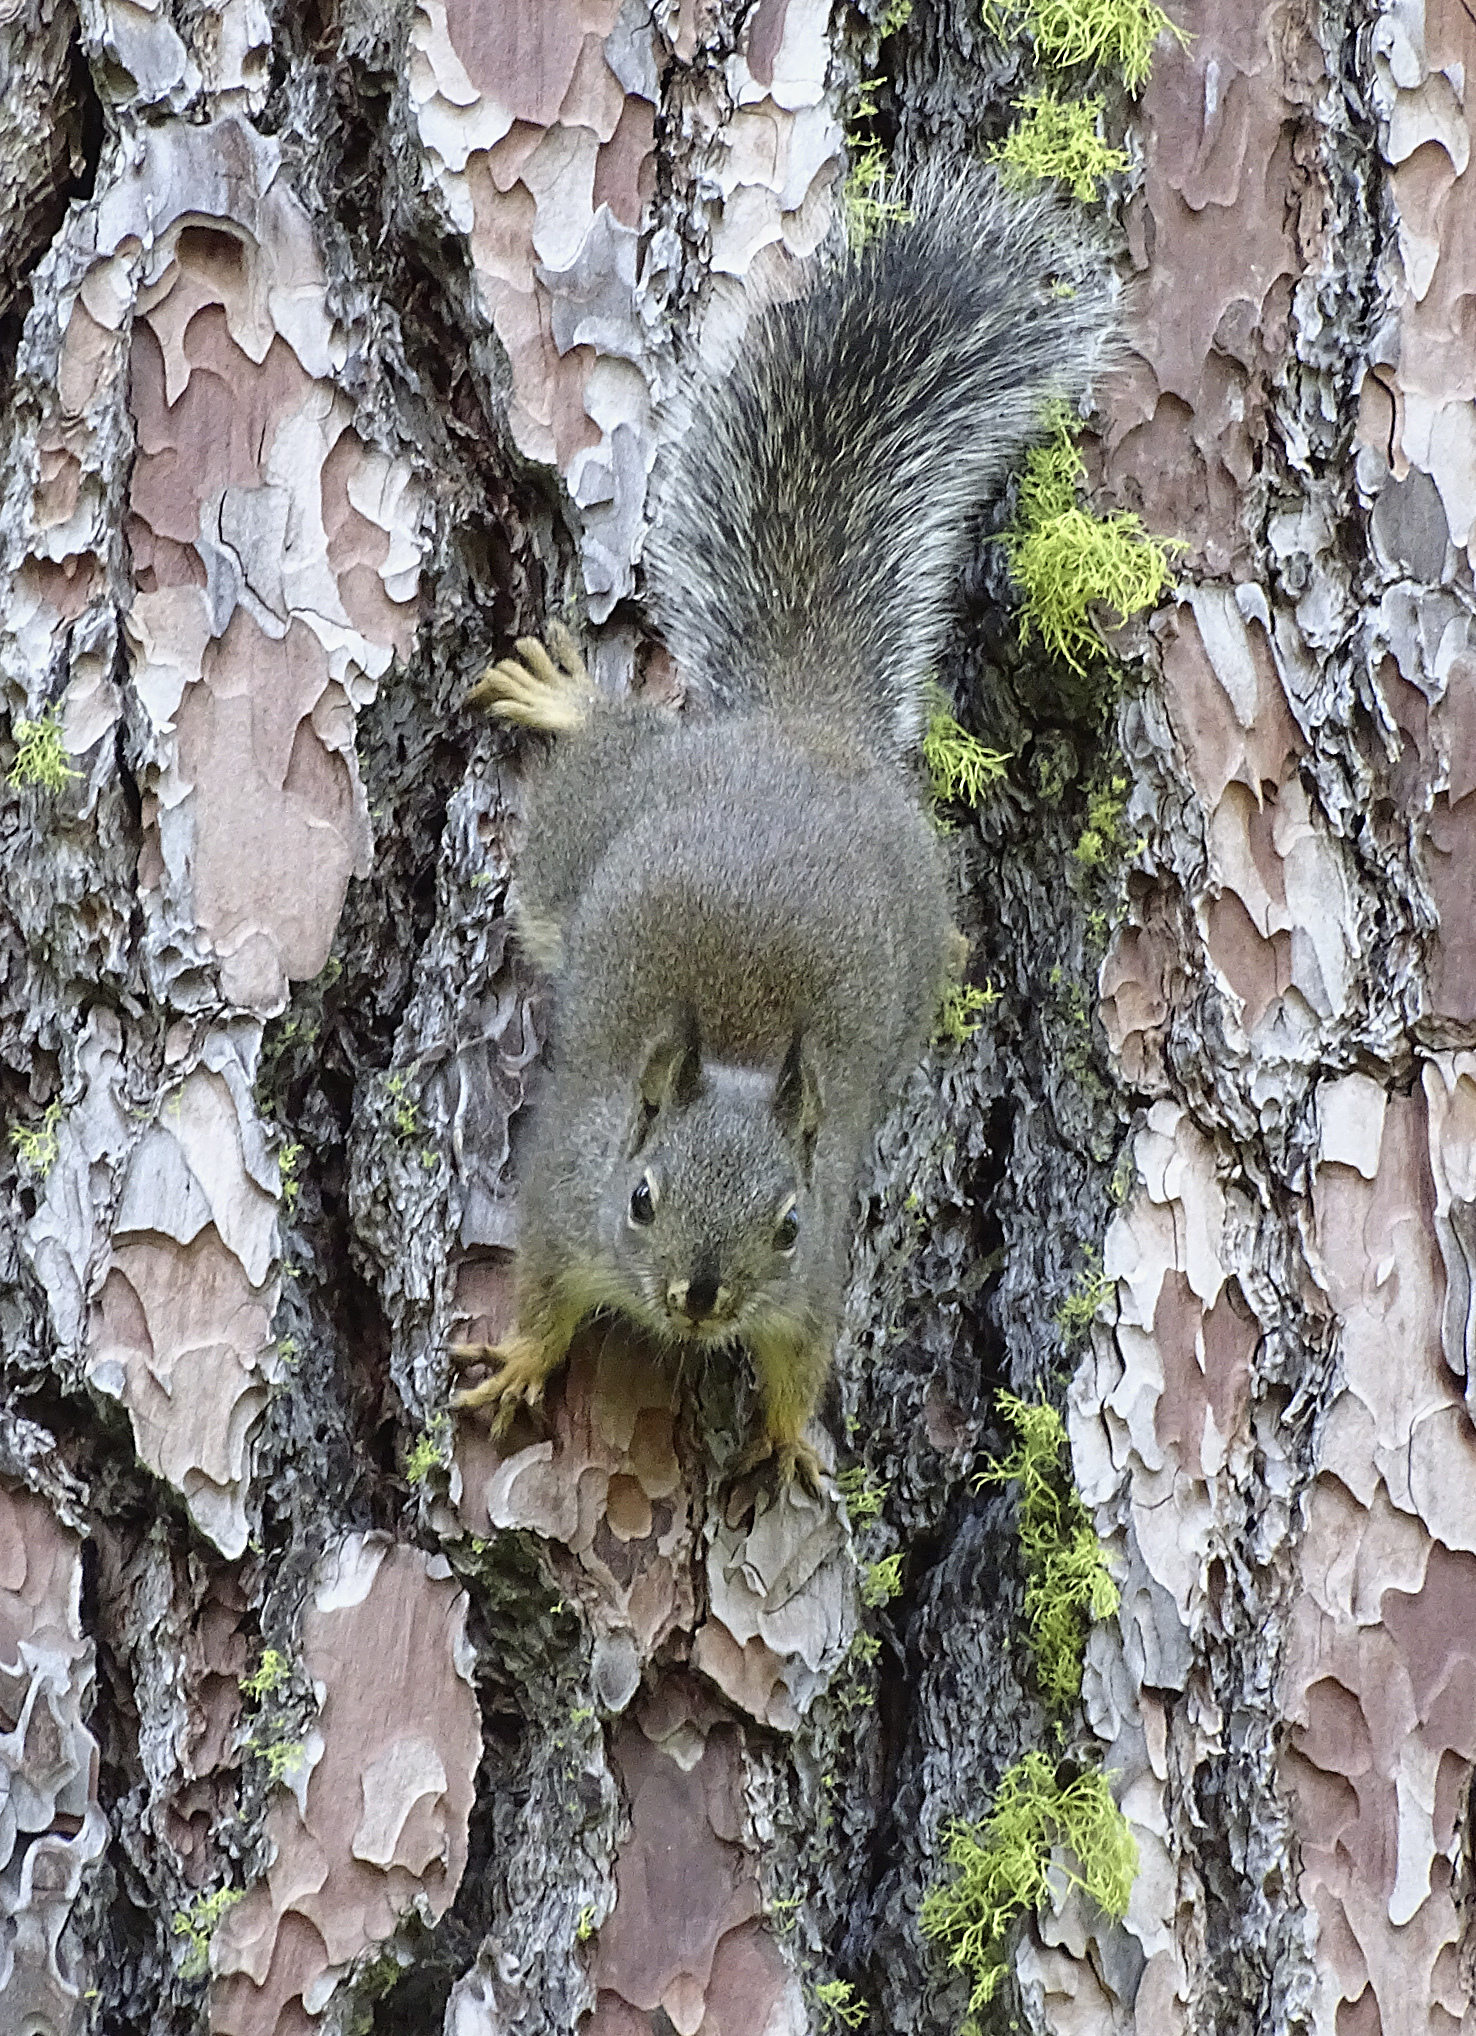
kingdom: Animalia
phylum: Chordata
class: Mammalia
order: Rodentia
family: Sciuridae
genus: Tamiasciurus
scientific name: Tamiasciurus douglasii
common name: Douglas's squirrel
